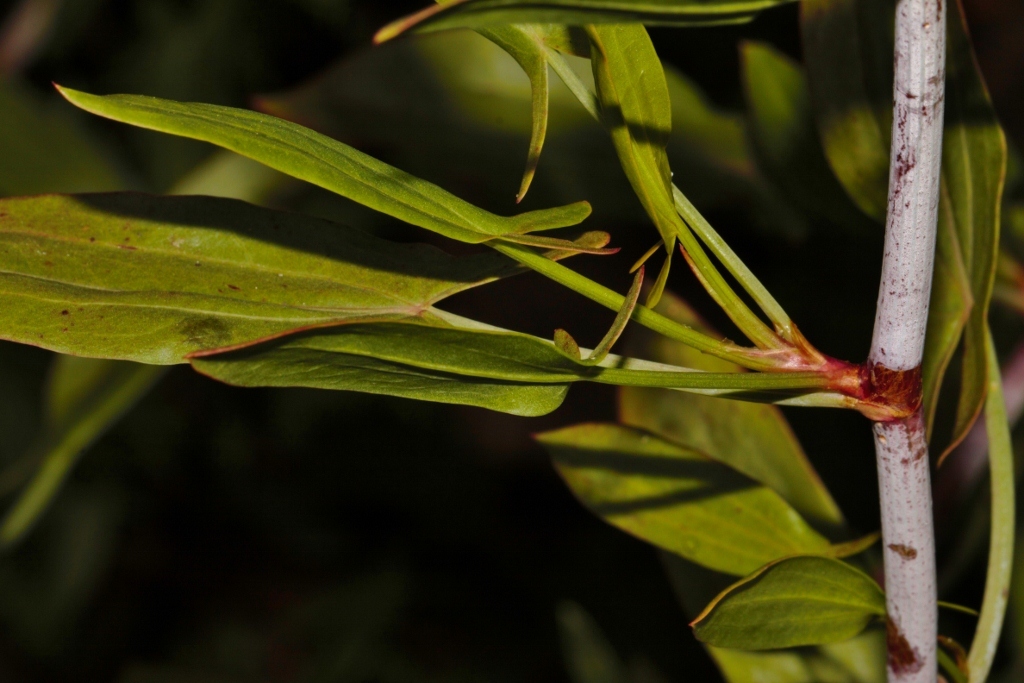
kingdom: Plantae
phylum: Tracheophyta
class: Magnoliopsida
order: Caryophyllales
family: Polygonaceae
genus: Rumex
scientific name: Rumex usambarensis
